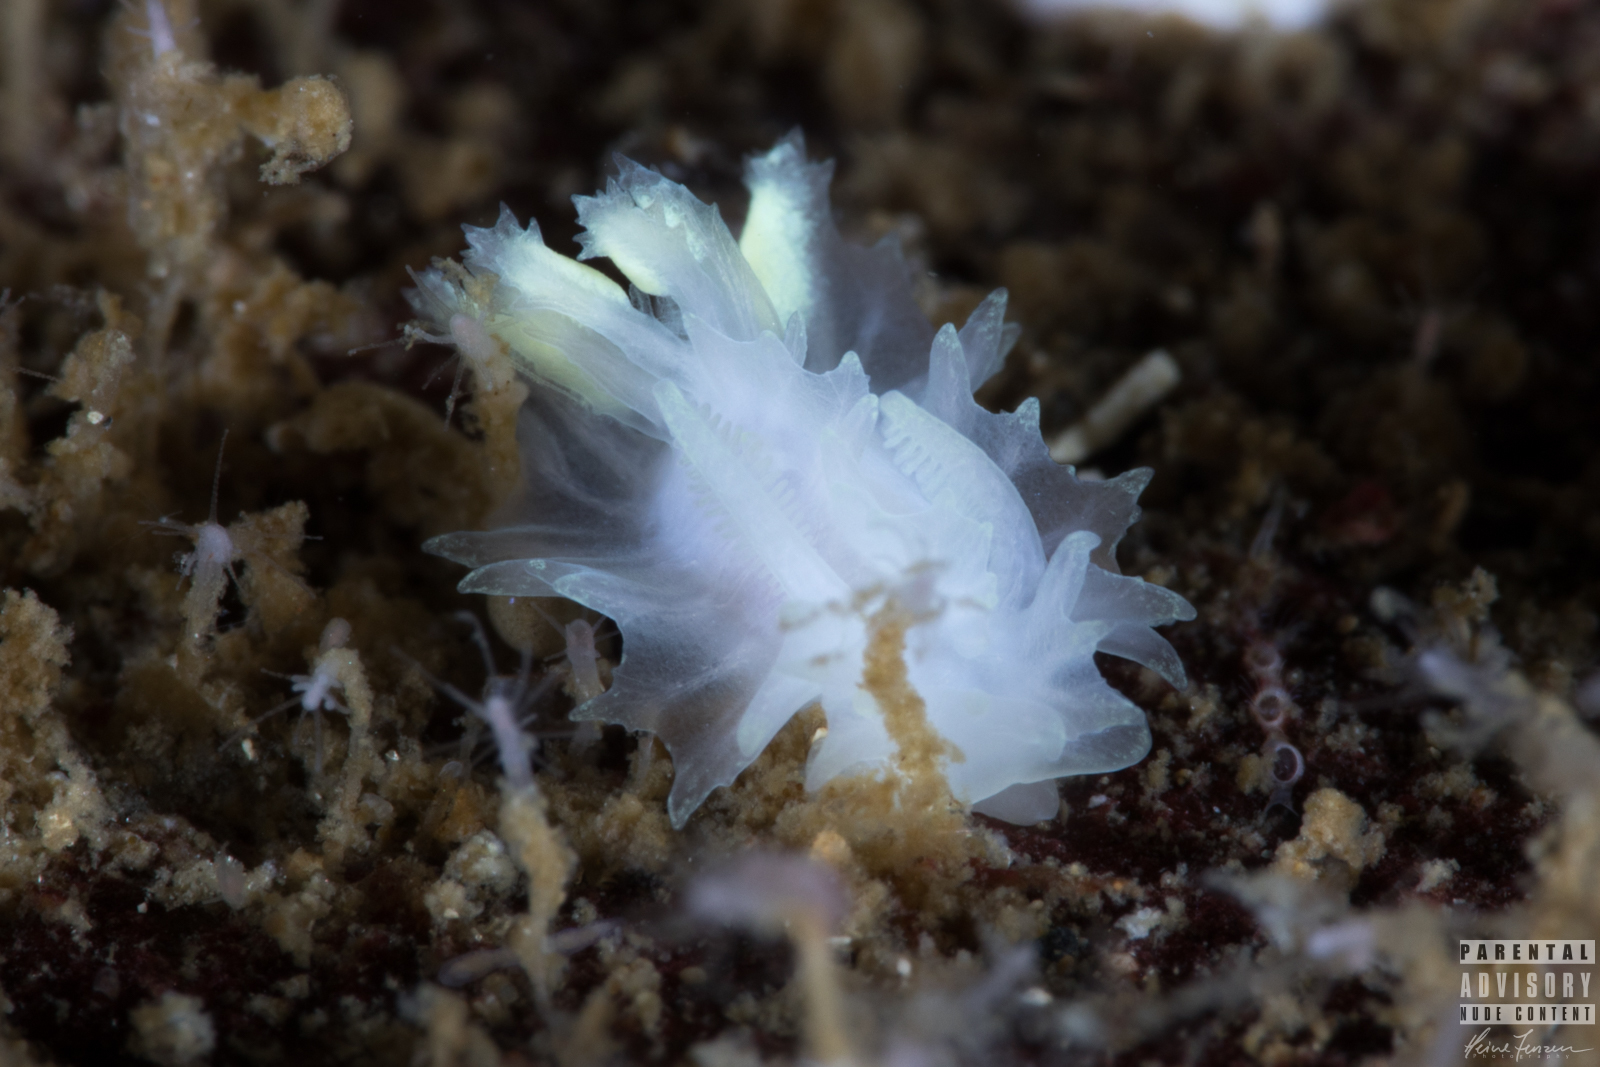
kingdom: Animalia
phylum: Mollusca
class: Gastropoda
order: Nudibranchia
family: Goniodorididae
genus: Lophodoris
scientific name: Lophodoris danielsseni
